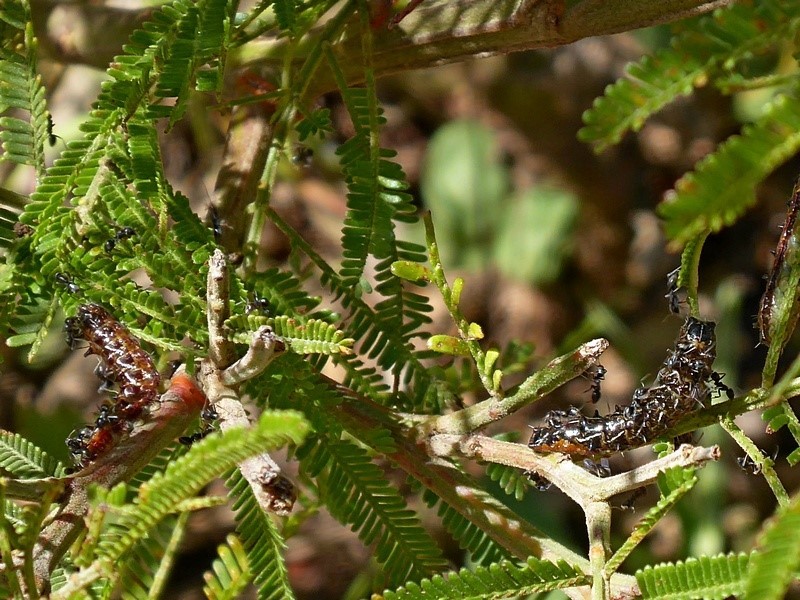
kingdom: Animalia
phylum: Arthropoda
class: Insecta
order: Lepidoptera
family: Lycaenidae
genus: Jalmenus
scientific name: Jalmenus evagoras
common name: Common imperial blue
